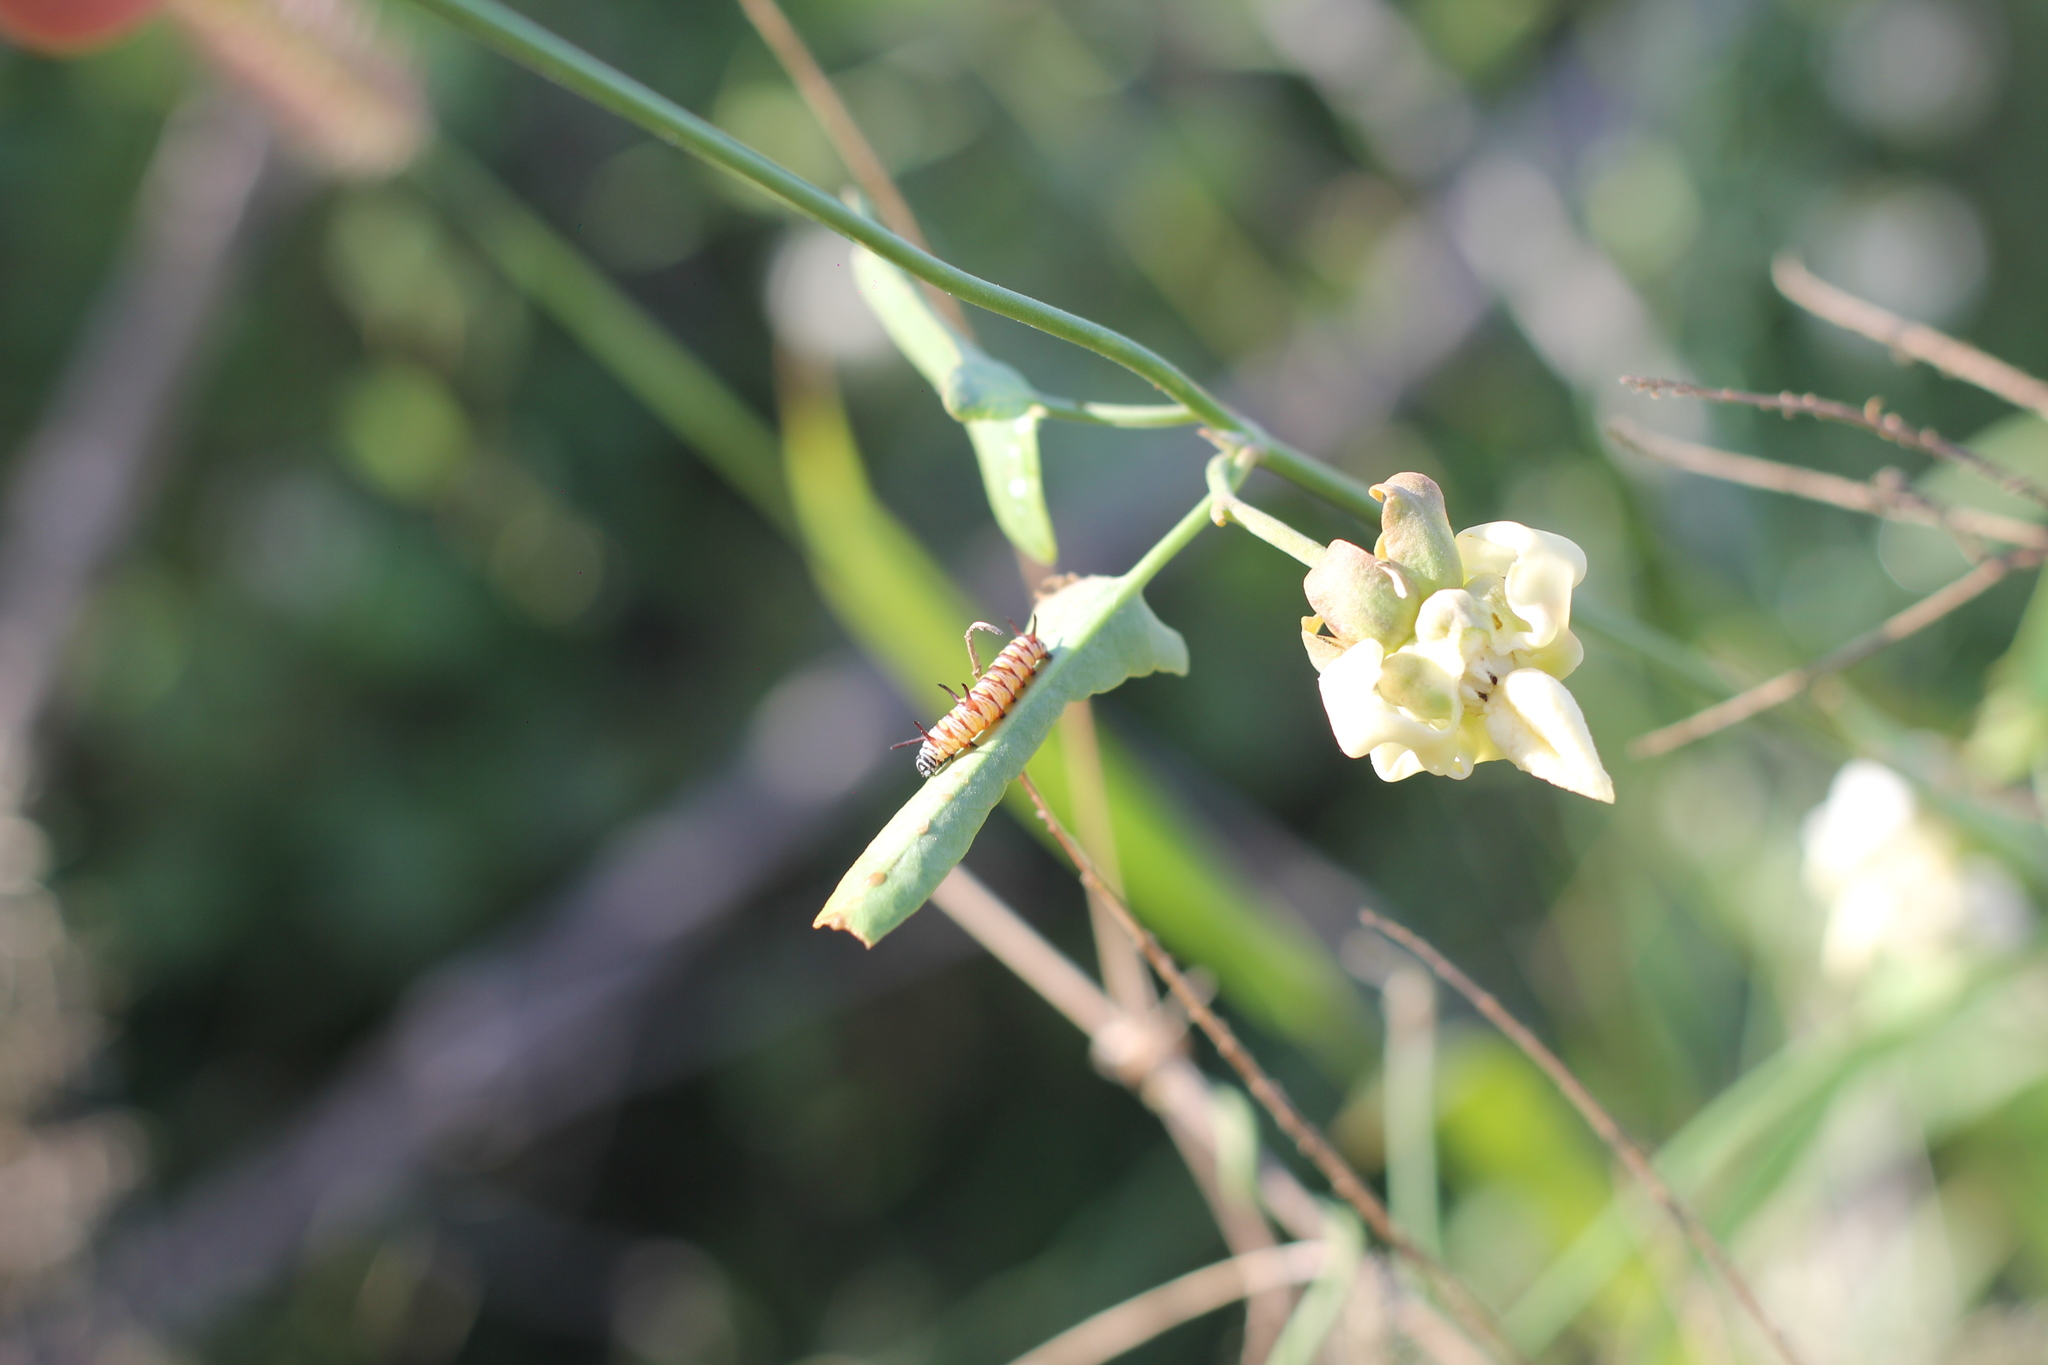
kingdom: Animalia
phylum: Arthropoda
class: Insecta
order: Lepidoptera
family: Nymphalidae
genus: Danaus
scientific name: Danaus gilippus
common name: Queen
